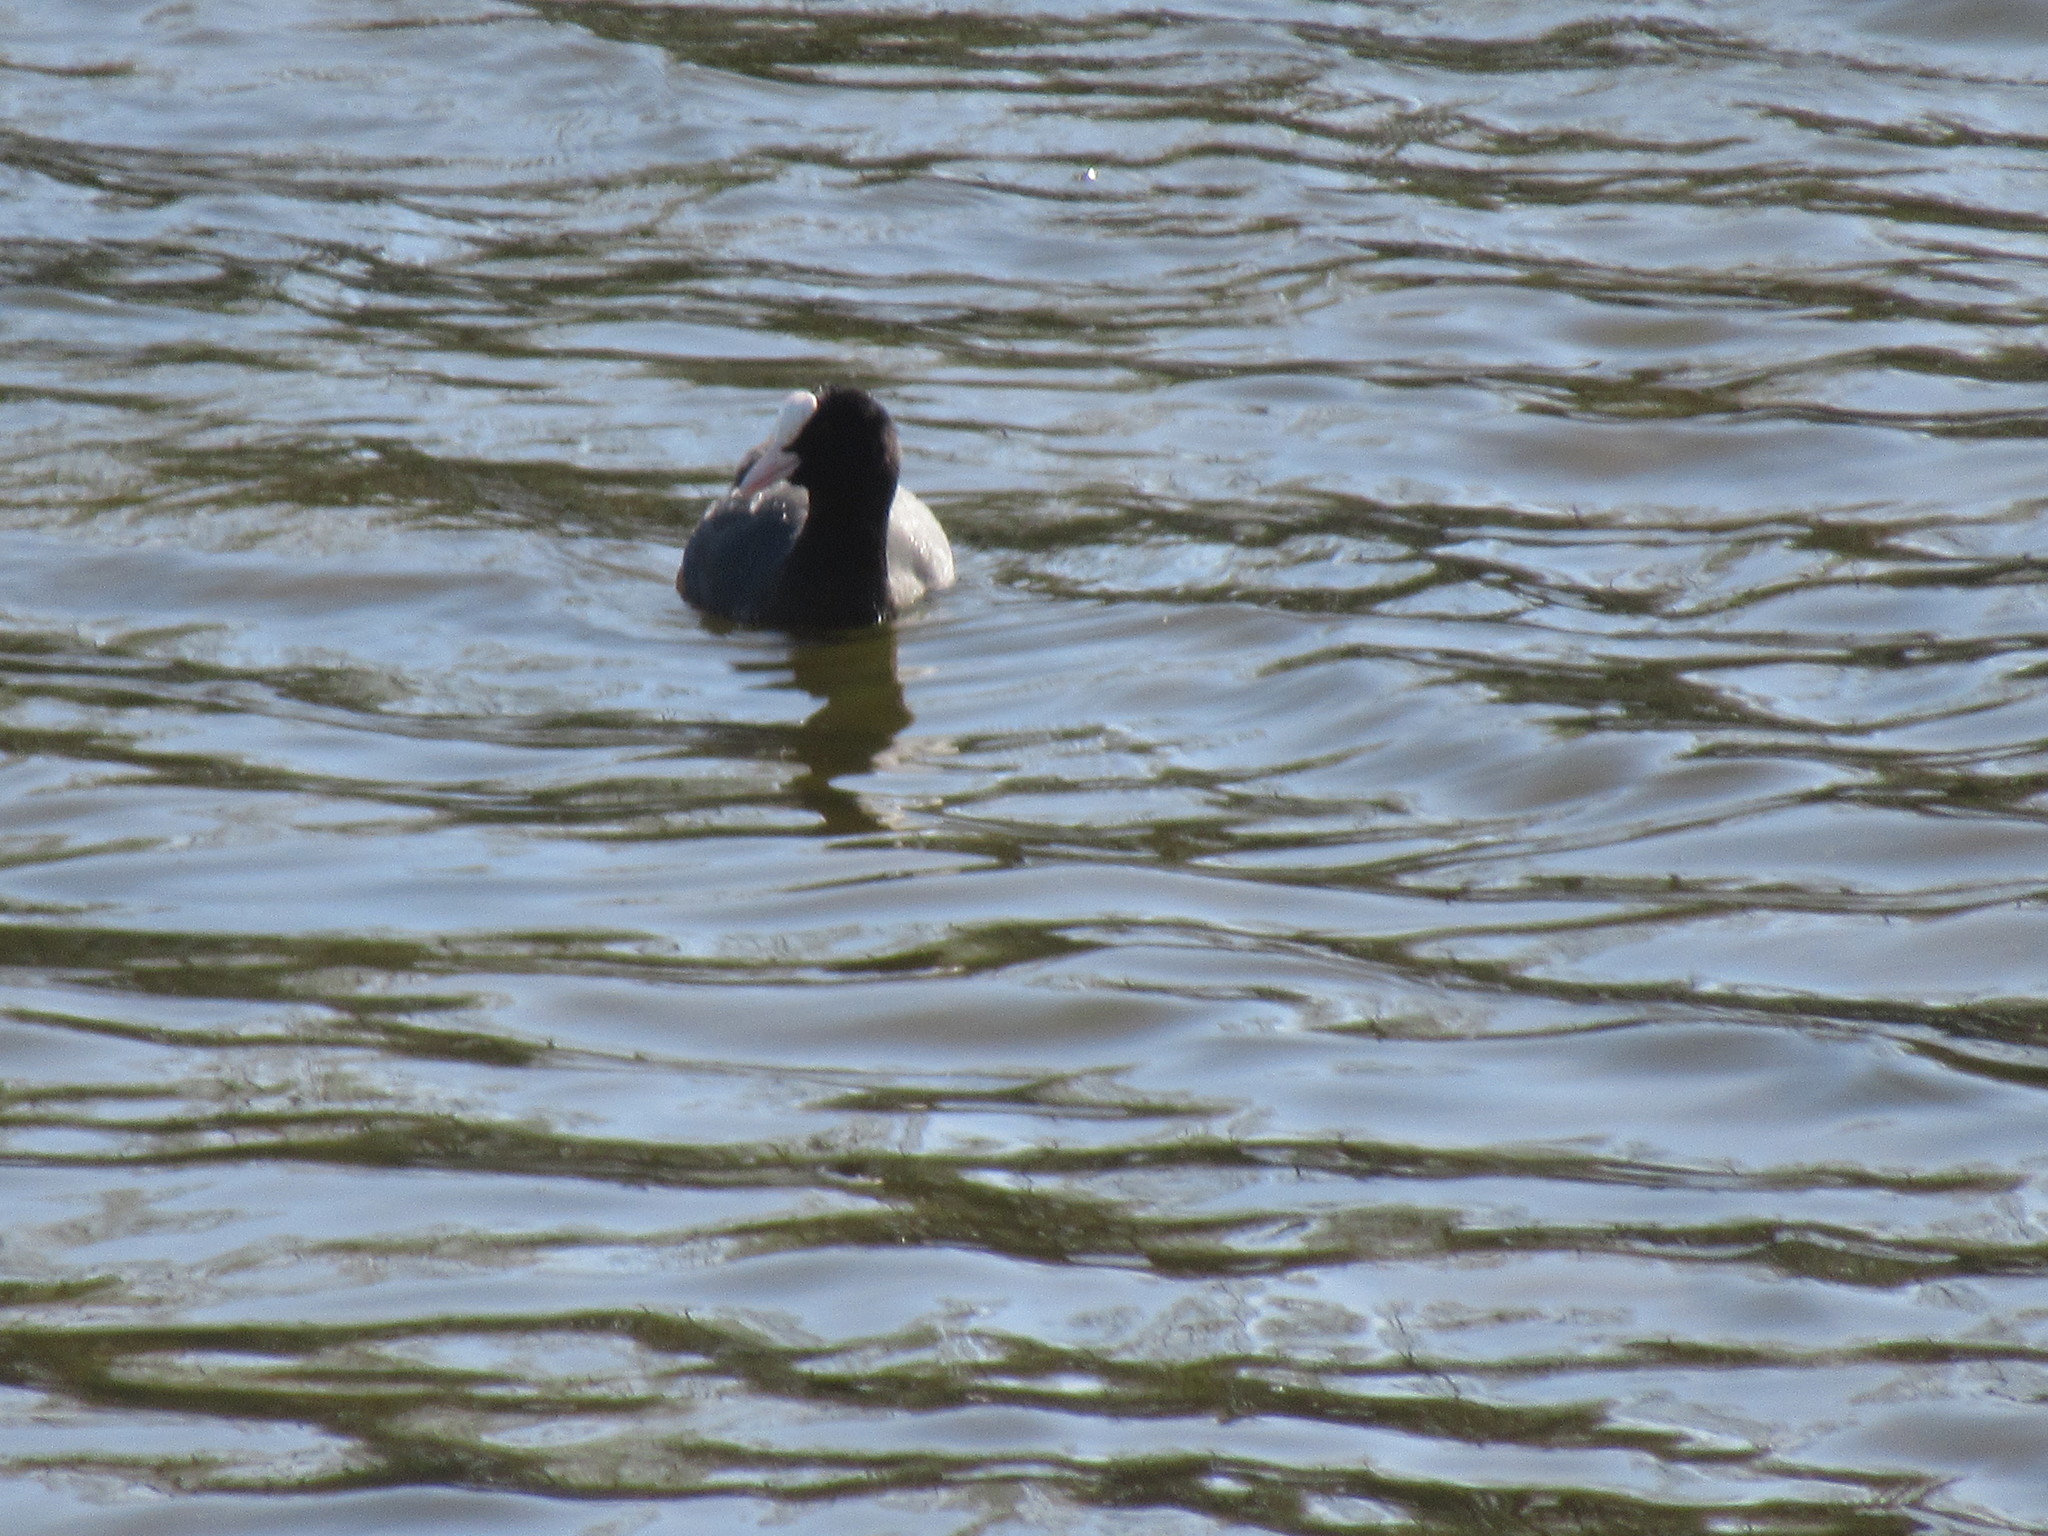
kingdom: Animalia
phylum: Chordata
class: Aves
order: Gruiformes
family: Rallidae
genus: Fulica
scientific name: Fulica atra
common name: Eurasian coot
